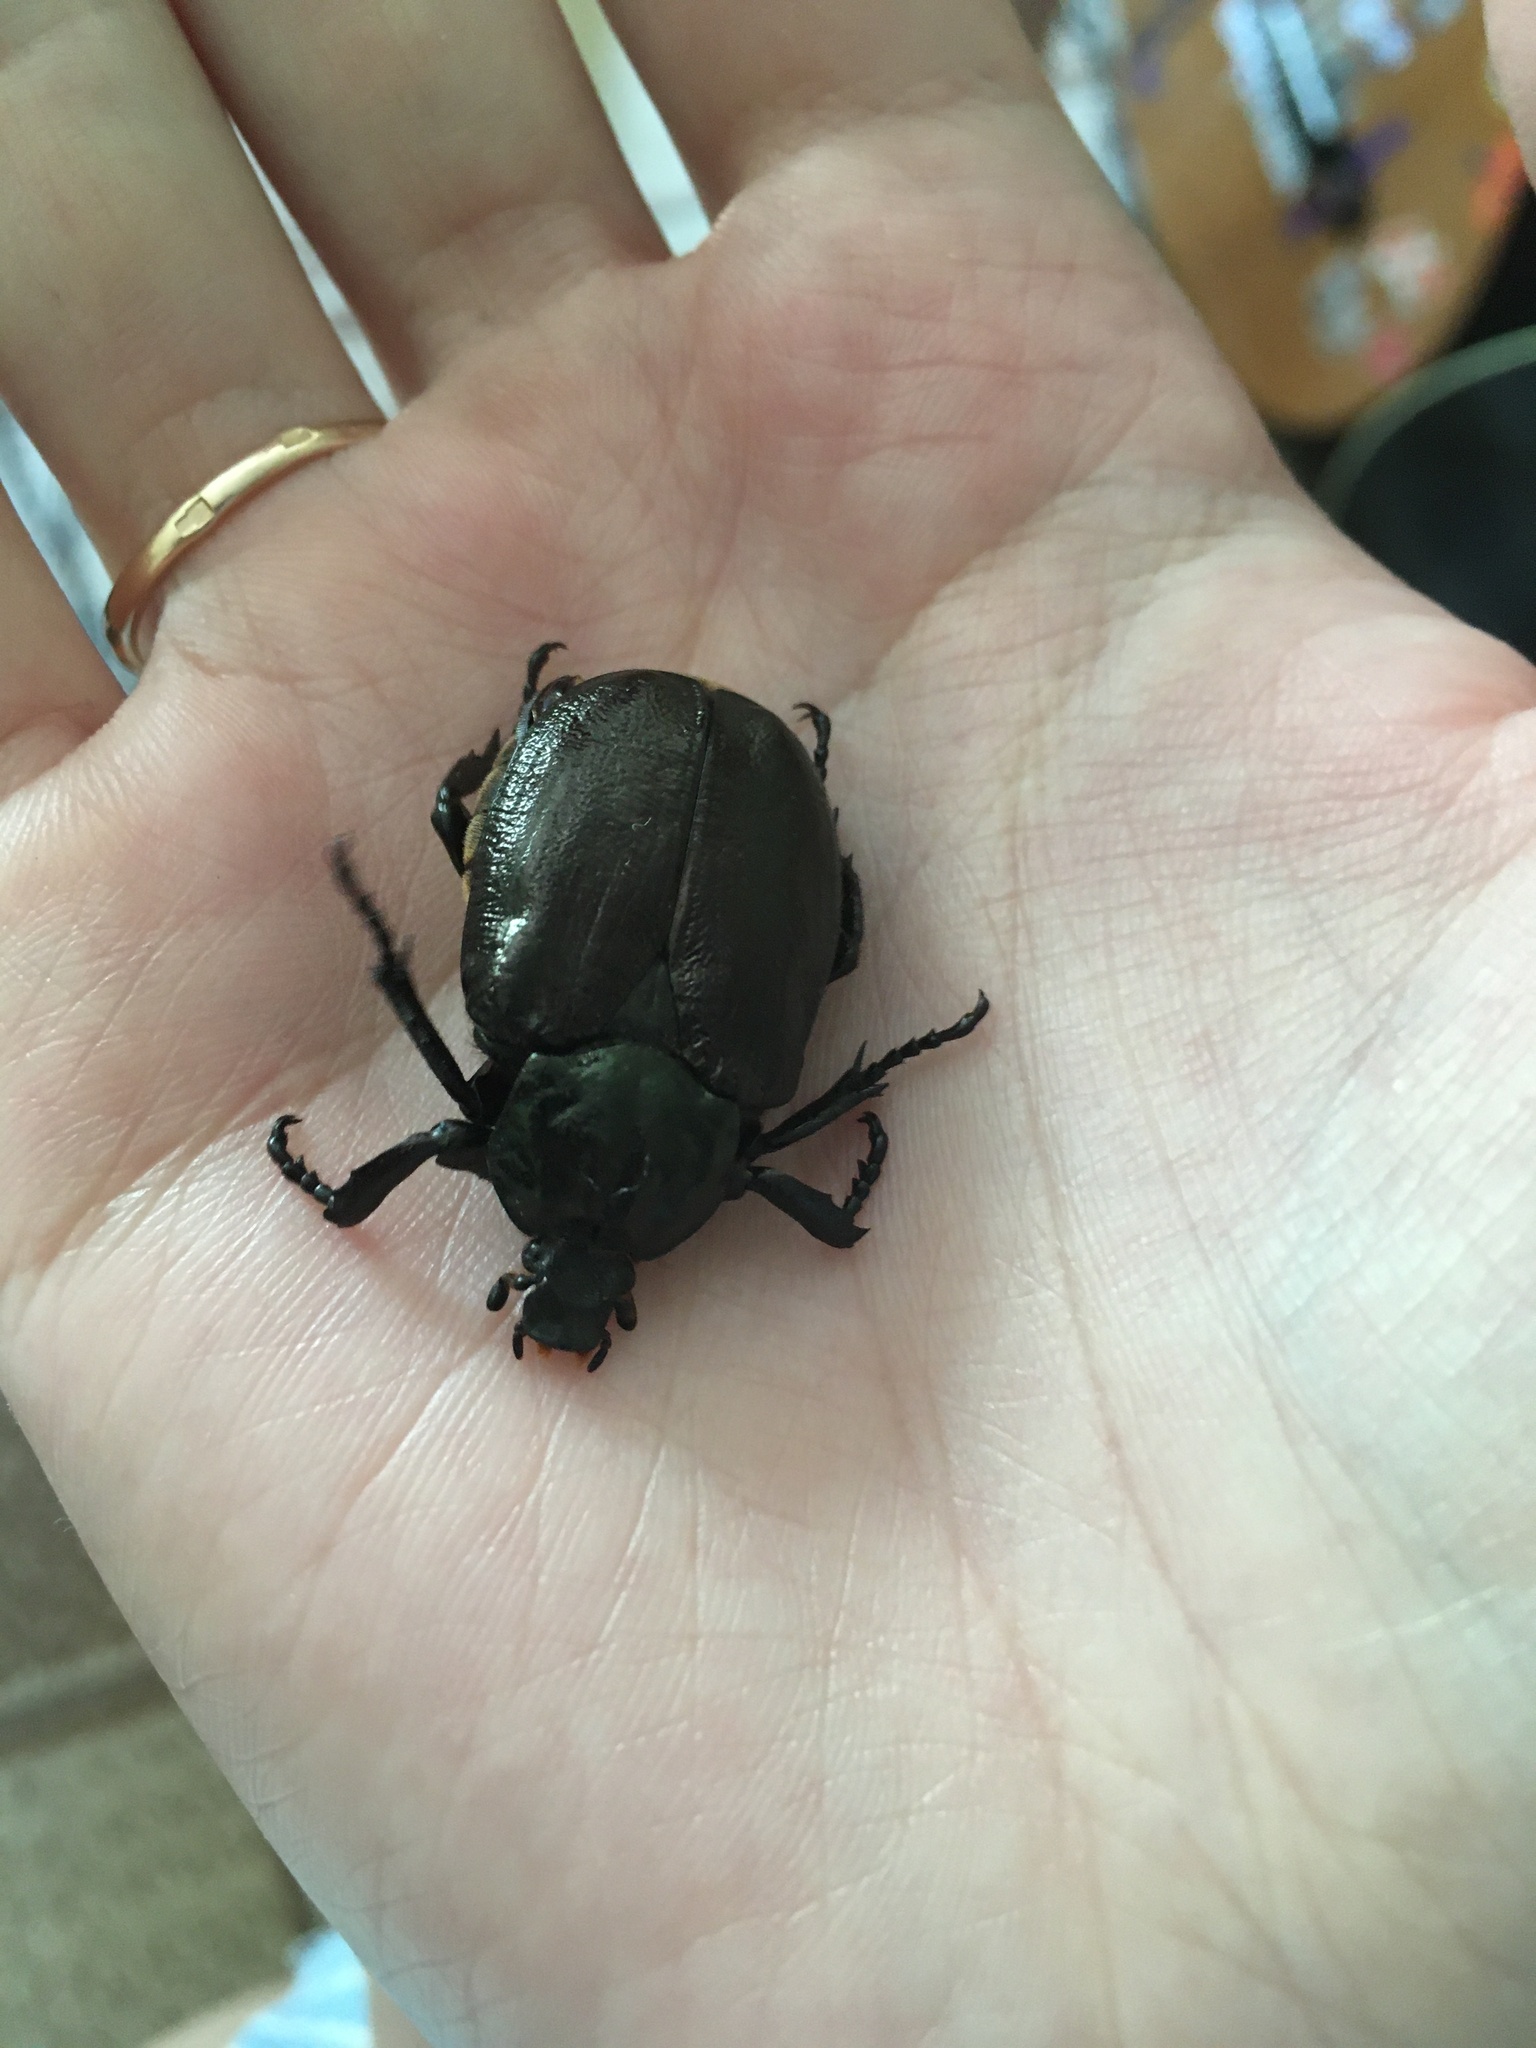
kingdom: Animalia
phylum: Arthropoda
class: Insecta
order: Coleoptera
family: Scarabaeidae
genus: Osmoderma
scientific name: Osmoderma barnabita
